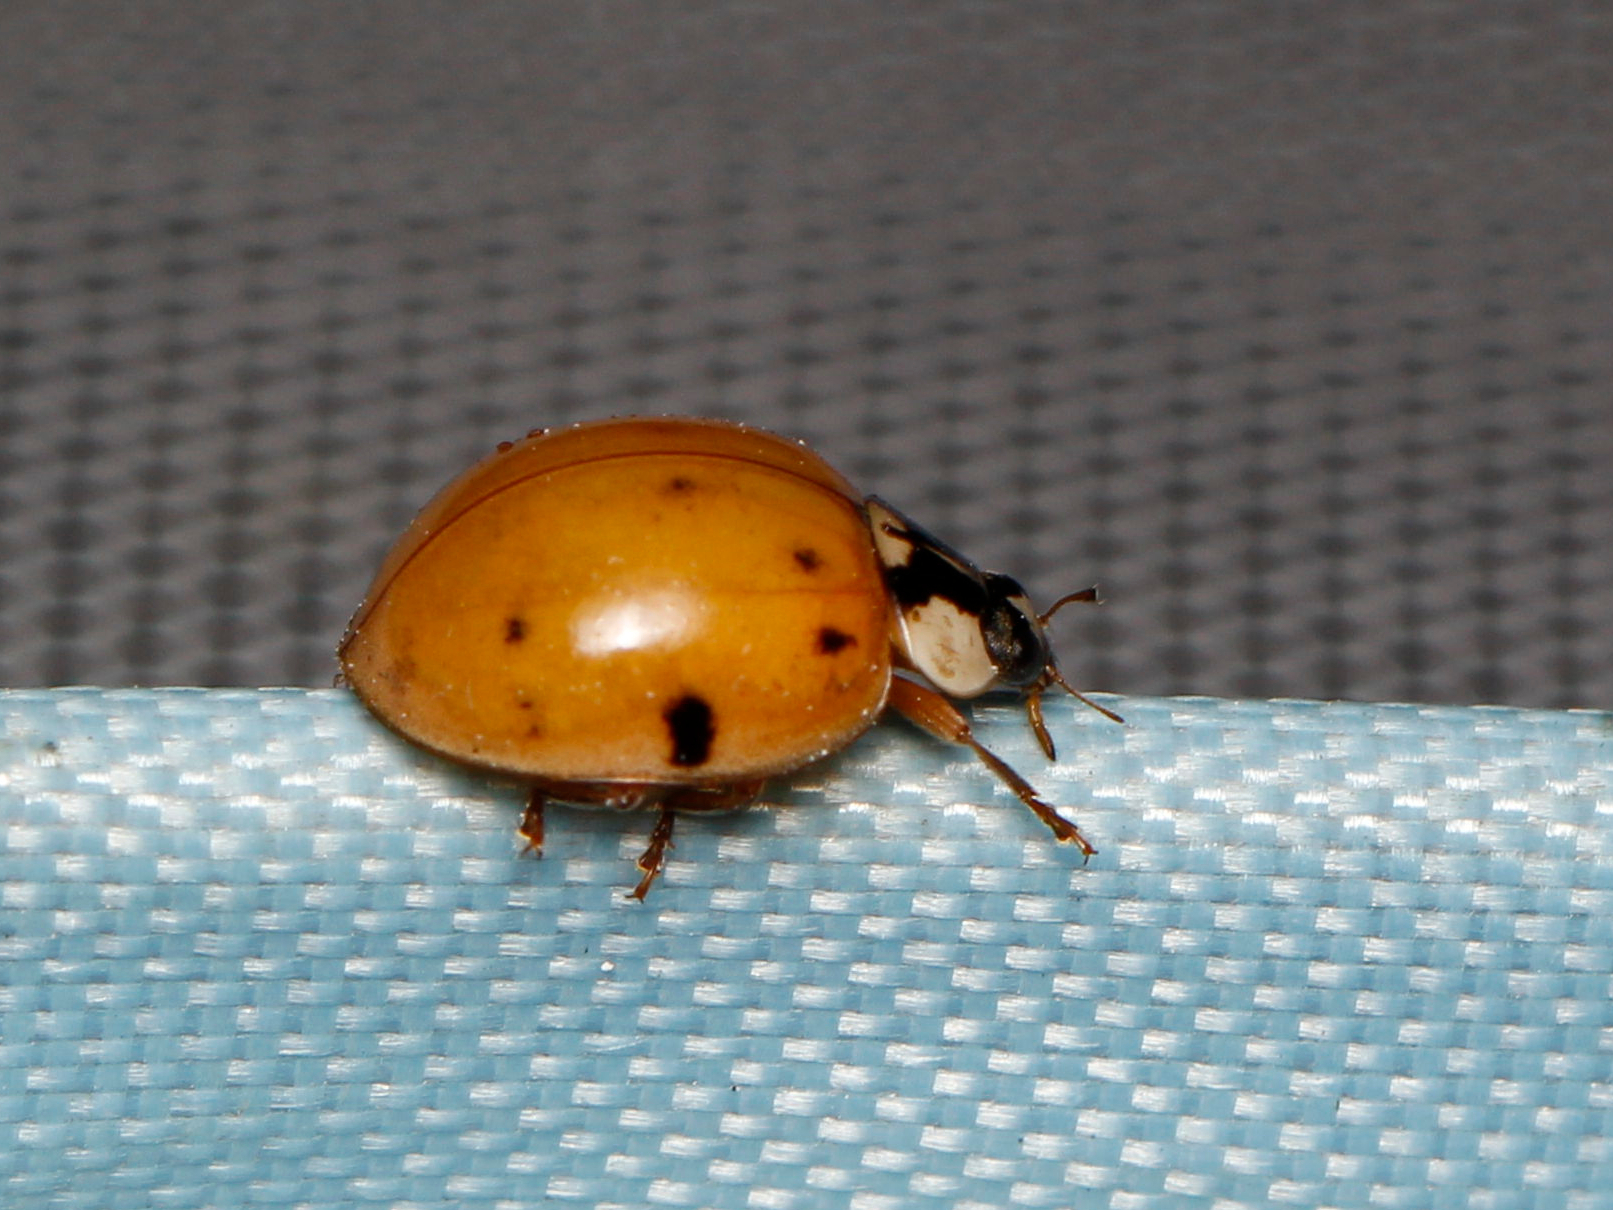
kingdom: Animalia
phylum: Arthropoda
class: Insecta
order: Coleoptera
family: Coccinellidae
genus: Harmonia
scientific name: Harmonia axyridis
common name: Harlequin ladybird
